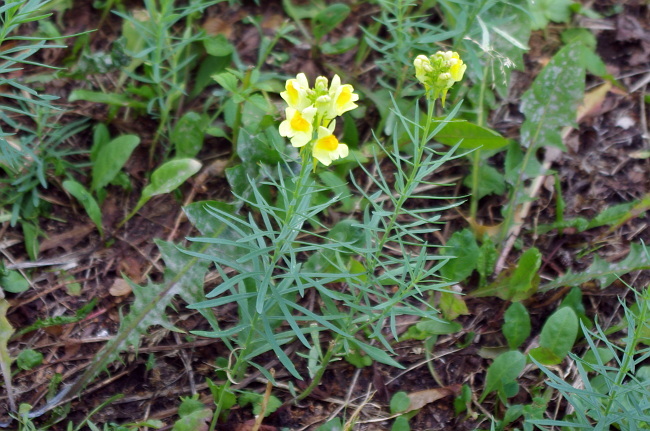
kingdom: Plantae
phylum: Tracheophyta
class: Magnoliopsida
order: Lamiales
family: Plantaginaceae
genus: Linaria
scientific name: Linaria vulgaris
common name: Butter and eggs
